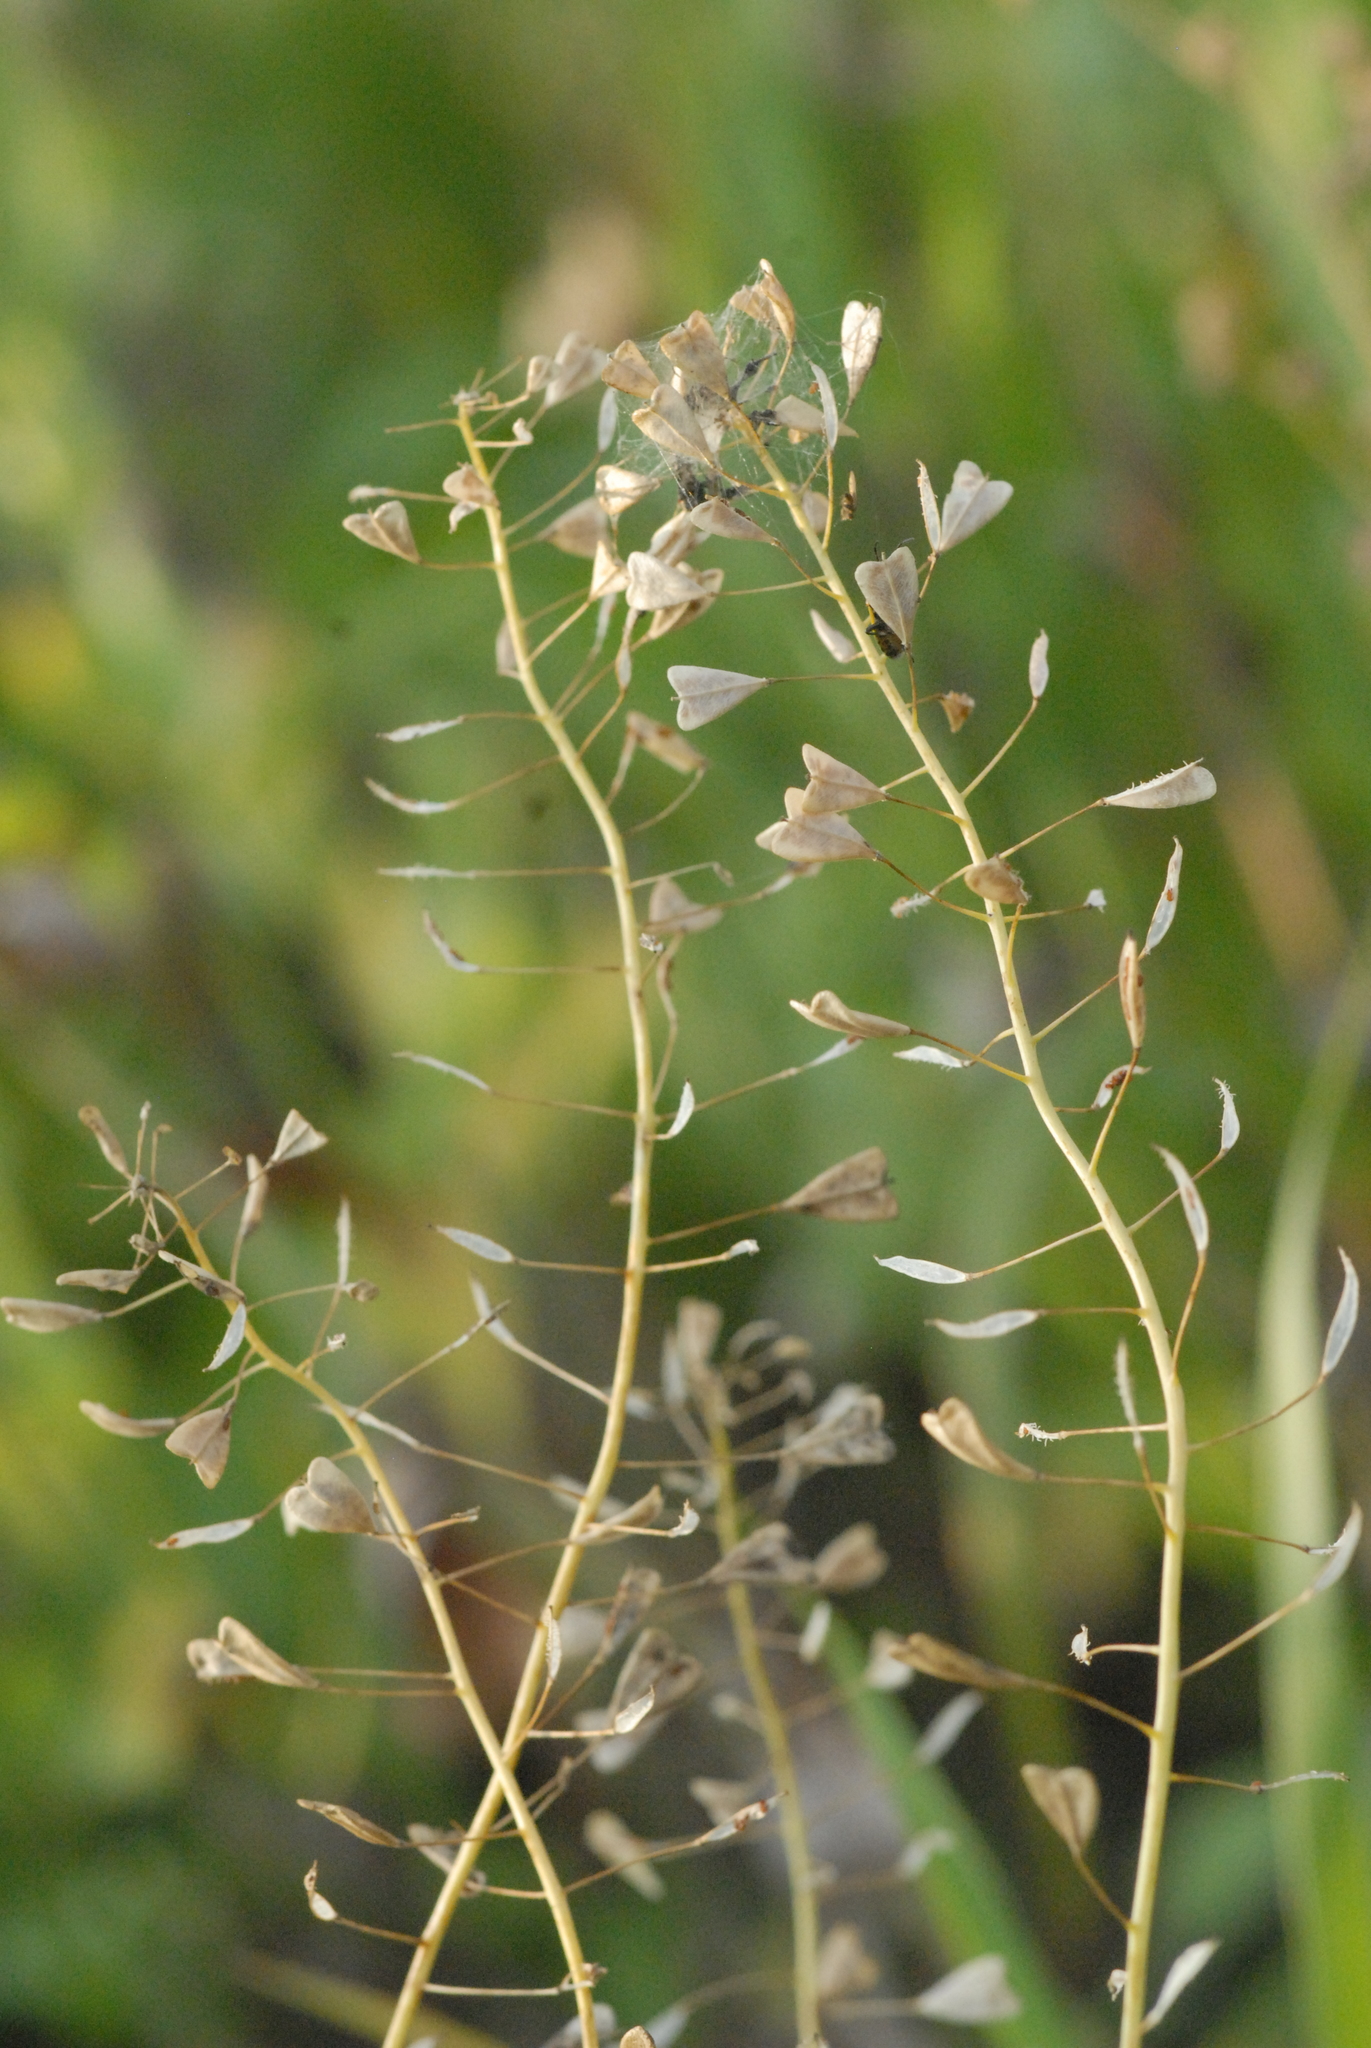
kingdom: Plantae
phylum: Tracheophyta
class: Magnoliopsida
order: Brassicales
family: Brassicaceae
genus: Capsella
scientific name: Capsella bursa-pastoris
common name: Shepherd's purse
